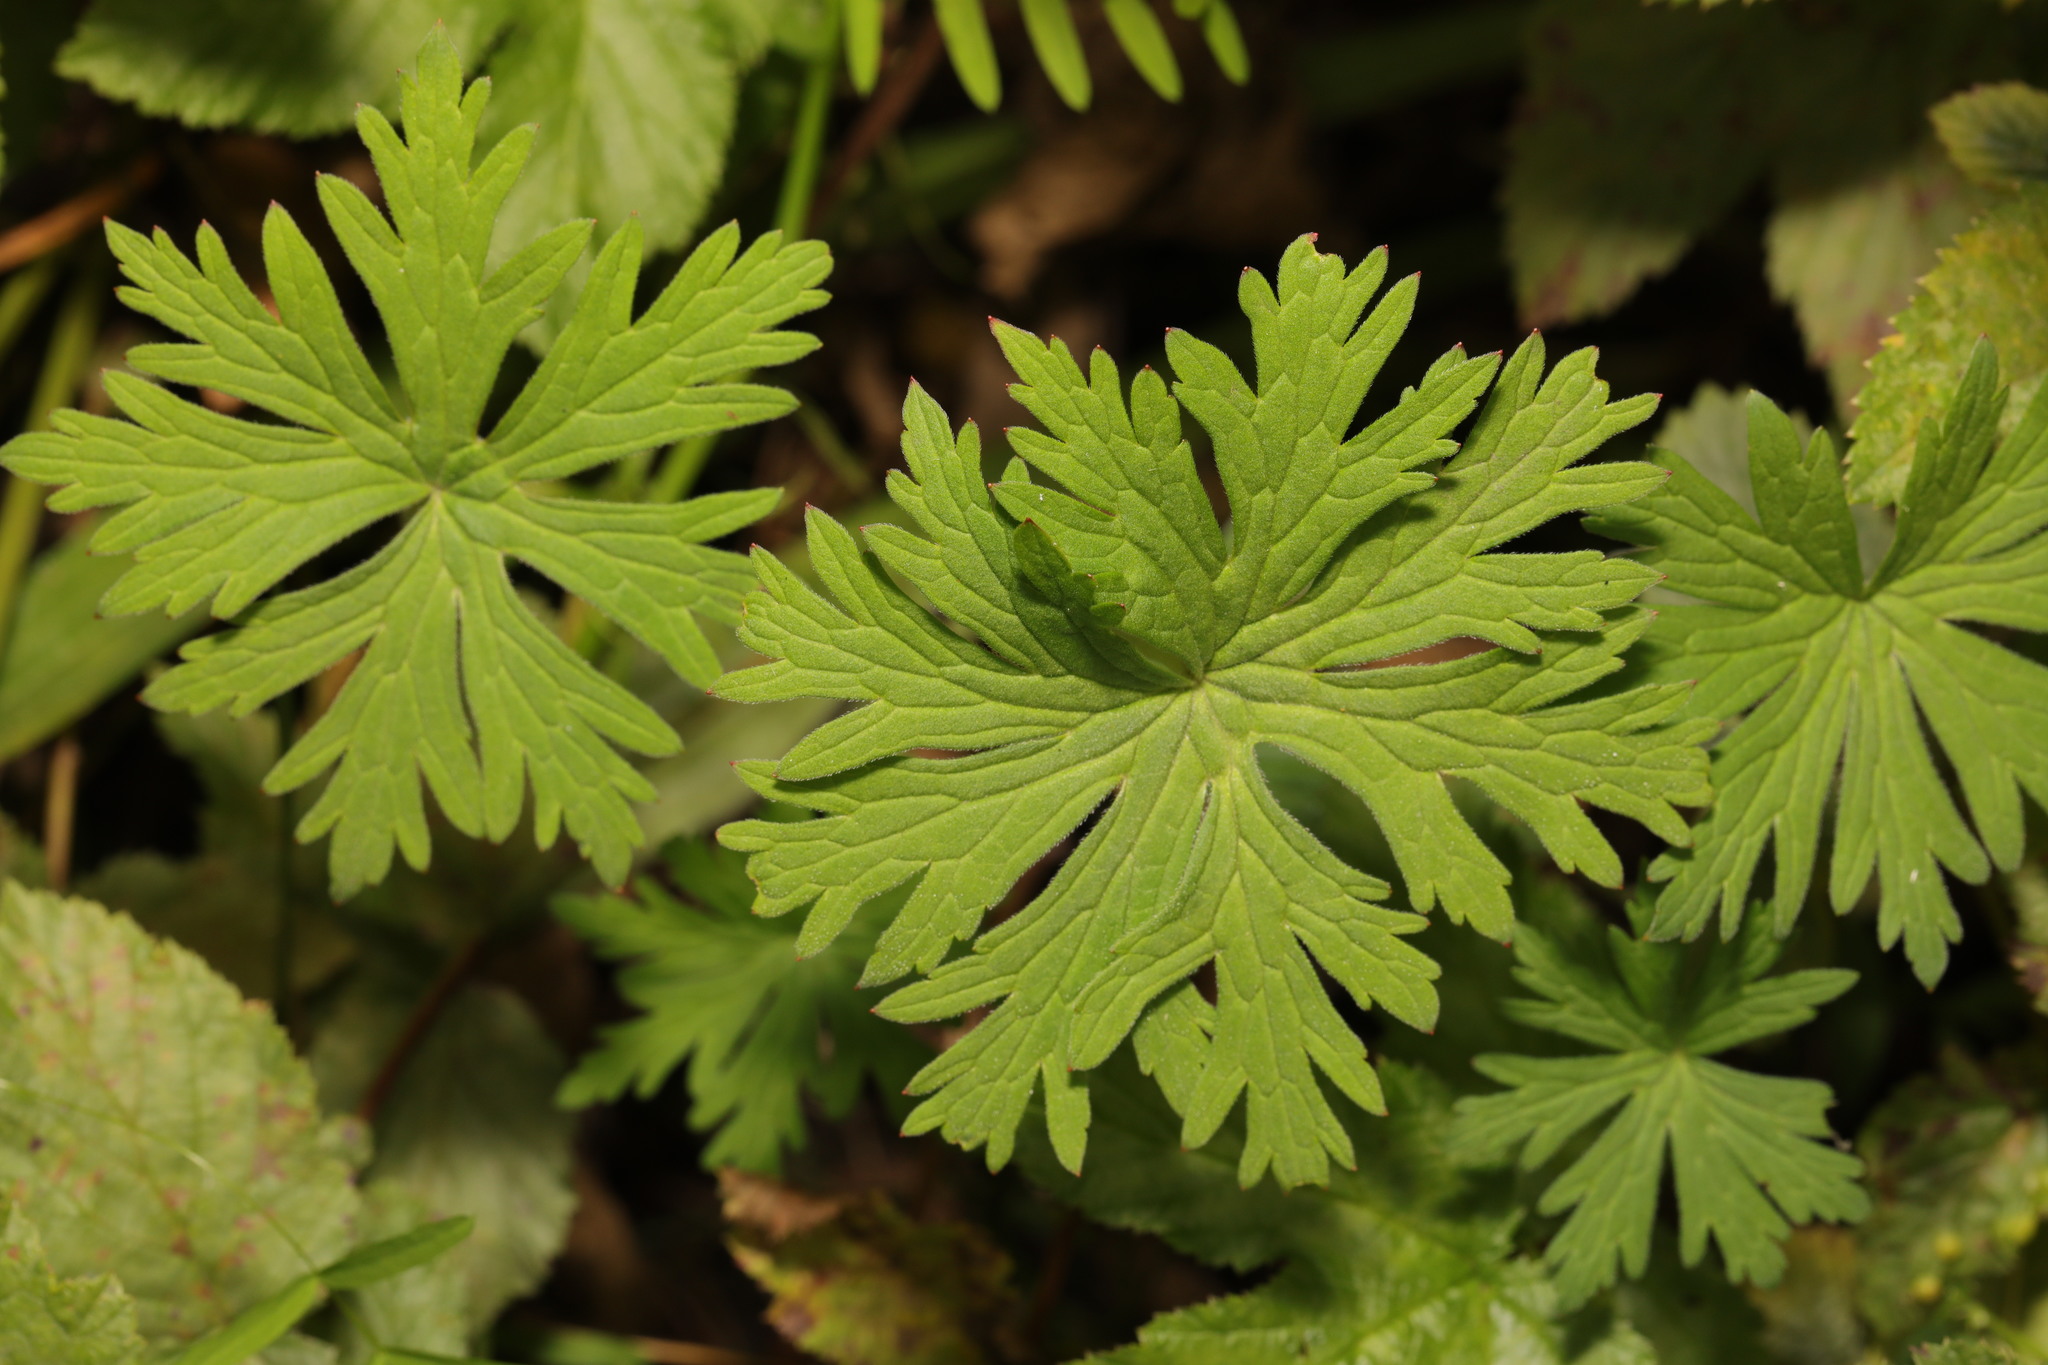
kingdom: Plantae
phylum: Tracheophyta
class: Magnoliopsida
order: Geraniales
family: Geraniaceae
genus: Geranium
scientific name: Geranium pratense
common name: Meadow crane's-bill
